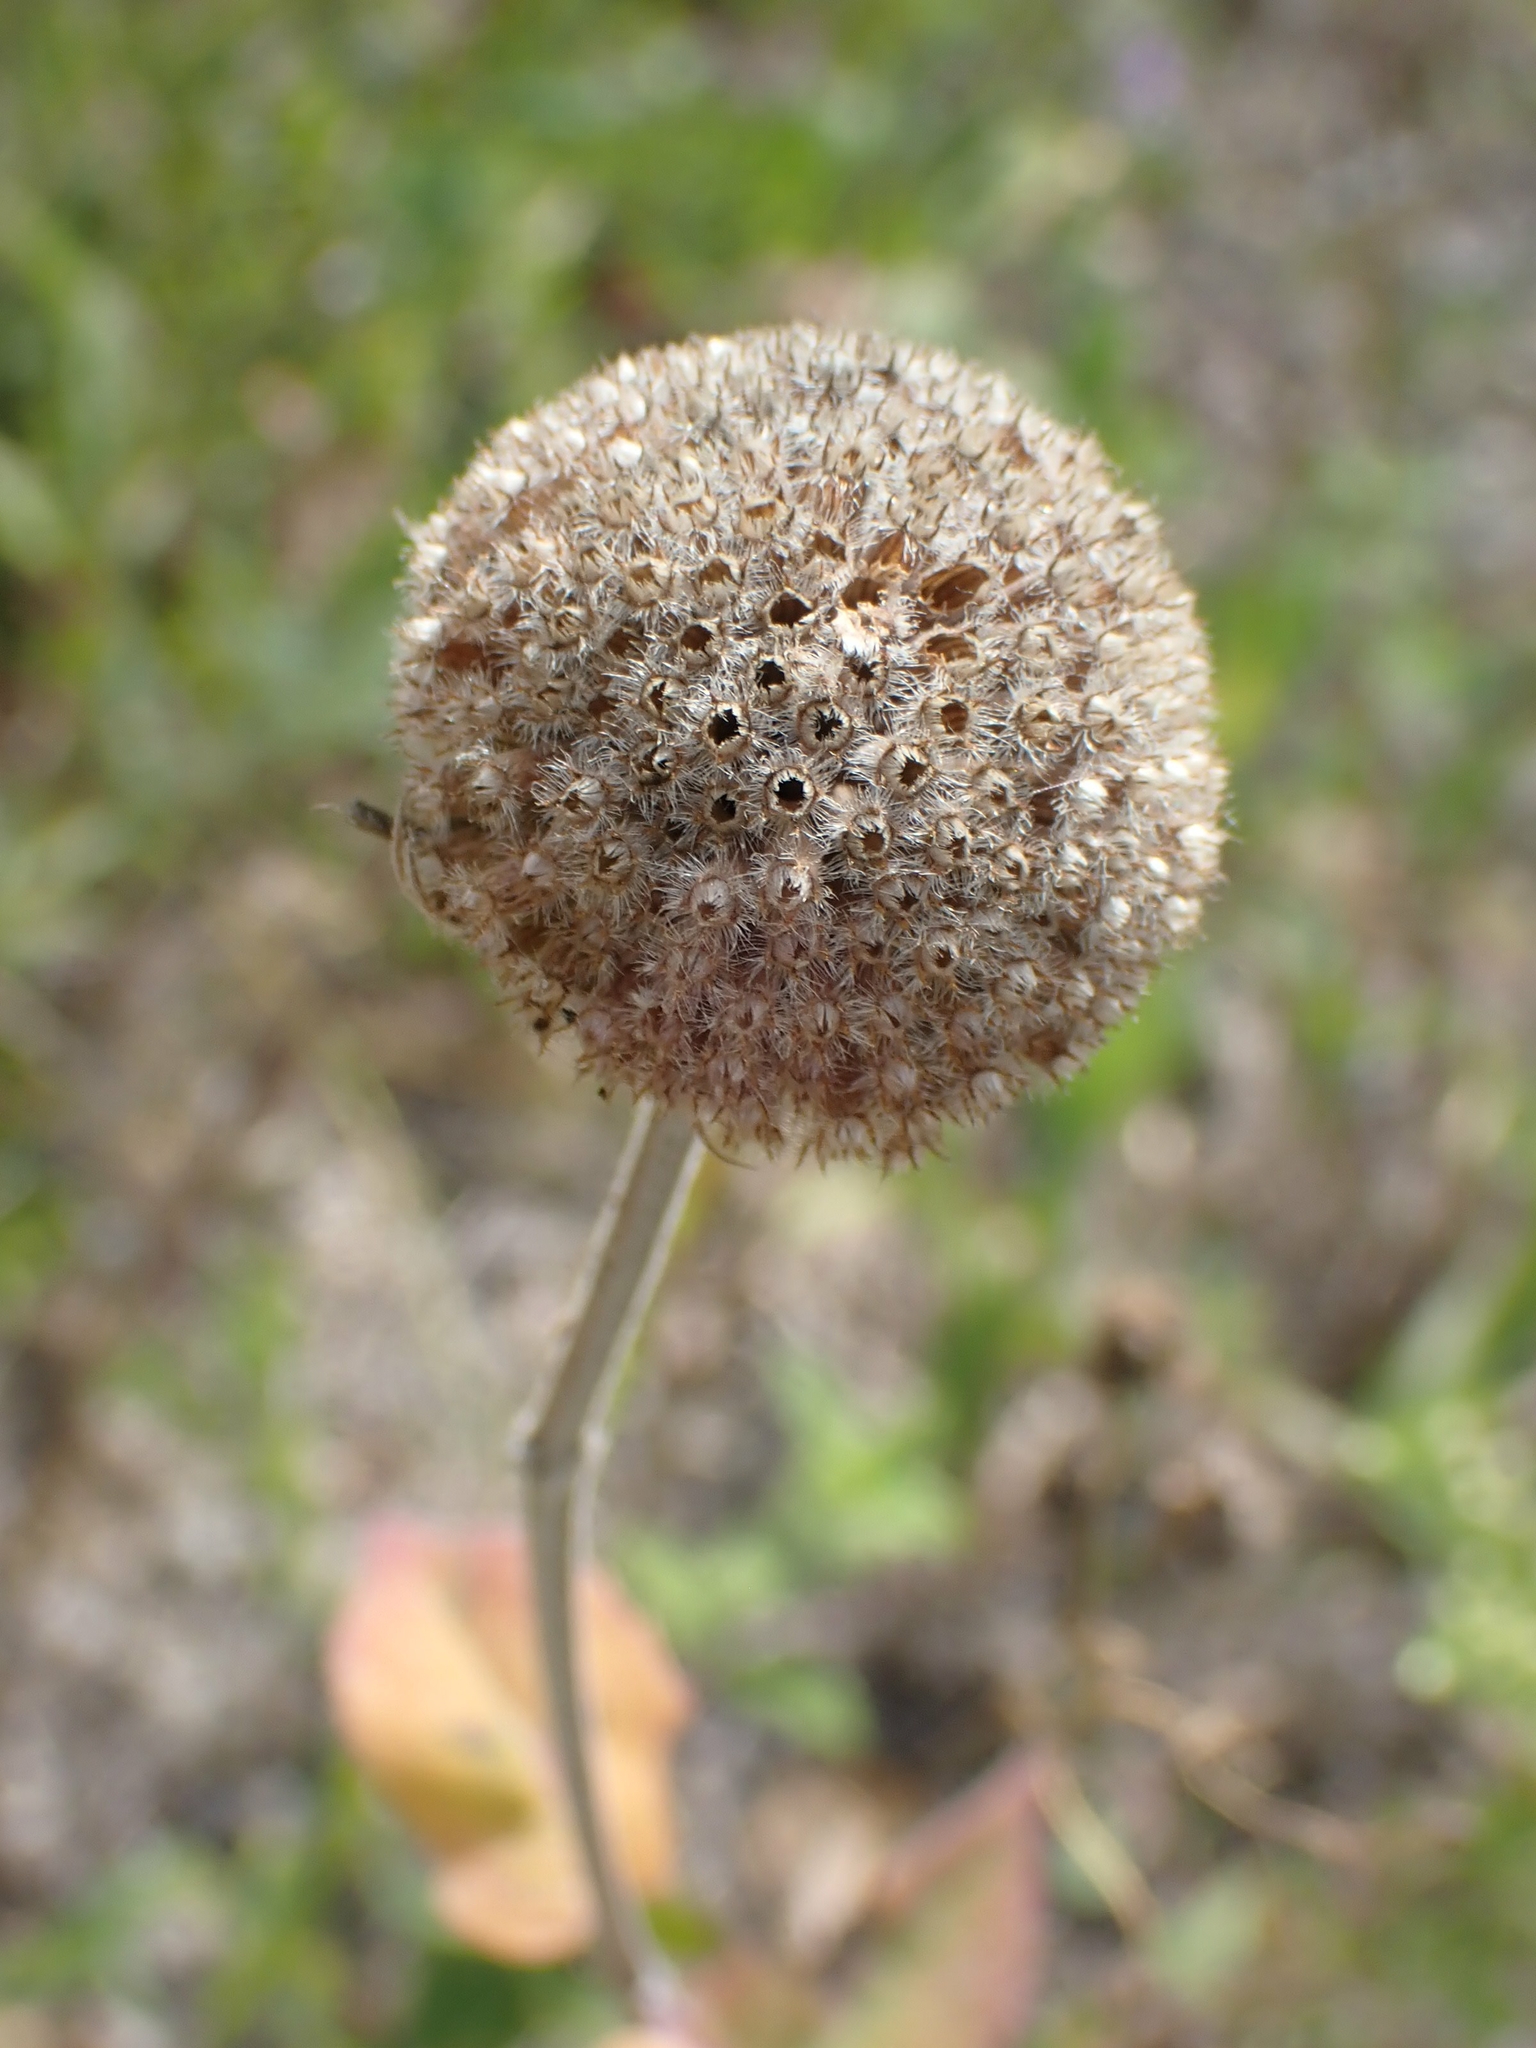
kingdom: Plantae
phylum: Tracheophyta
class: Magnoliopsida
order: Lamiales
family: Lamiaceae
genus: Monarda
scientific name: Monarda fistulosa
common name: Purple beebalm
